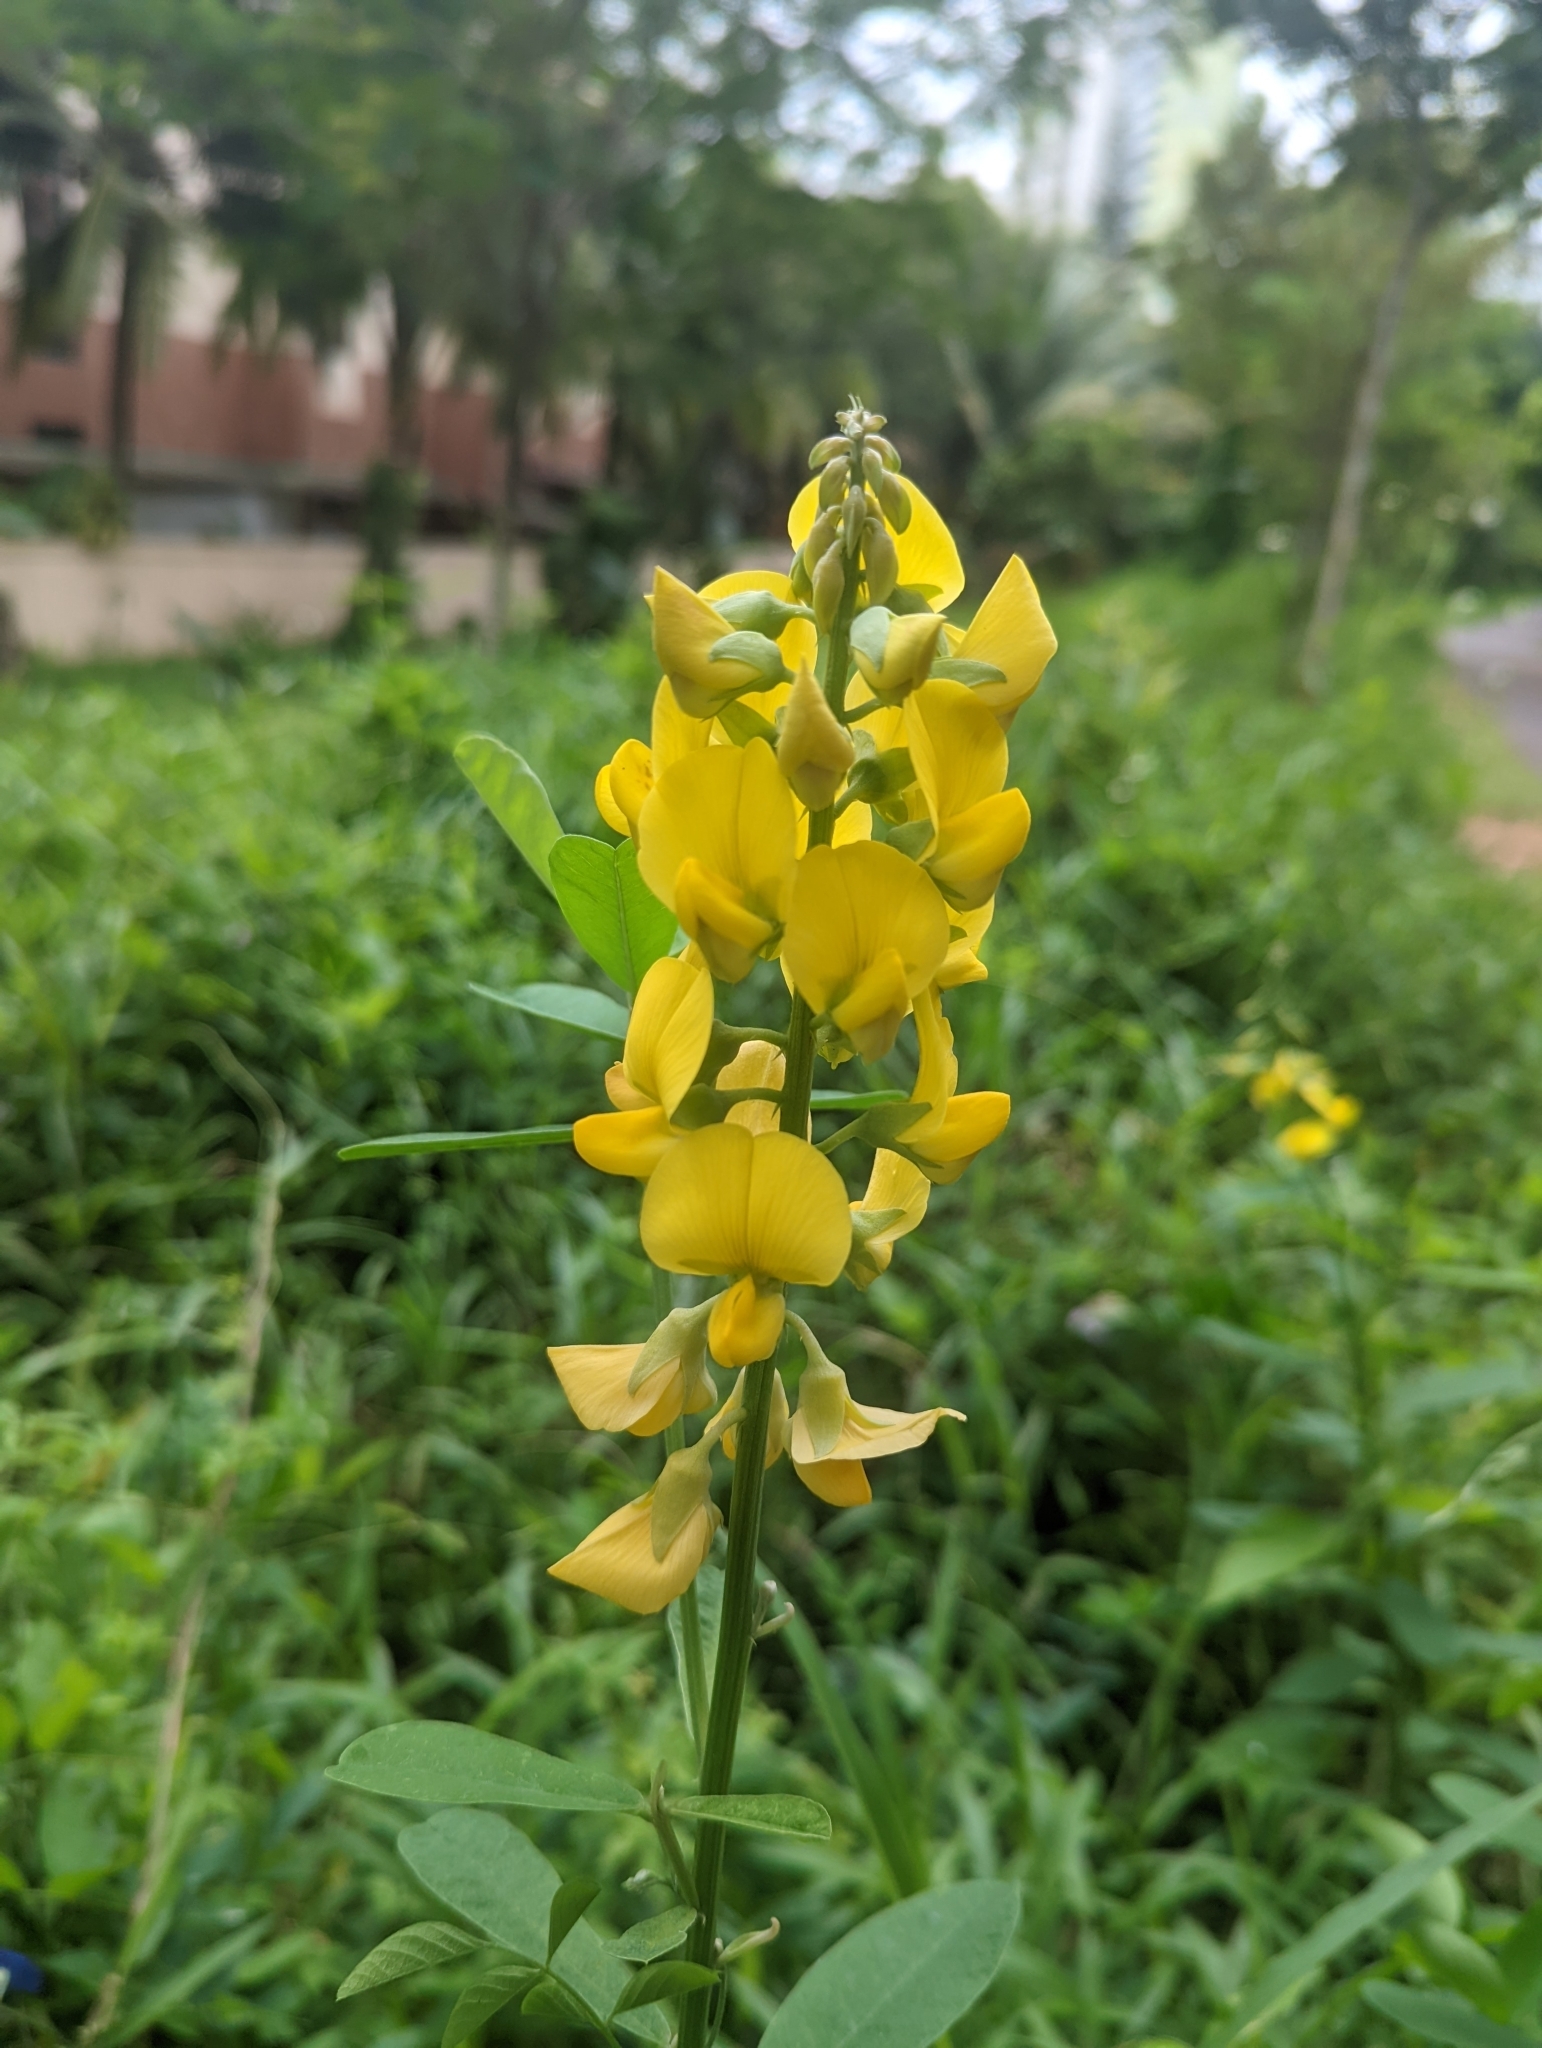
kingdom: Plantae
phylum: Tracheophyta
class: Magnoliopsida
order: Fabales
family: Fabaceae
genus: Crotalaria
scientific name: Crotalaria retusa
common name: Rattleweed
